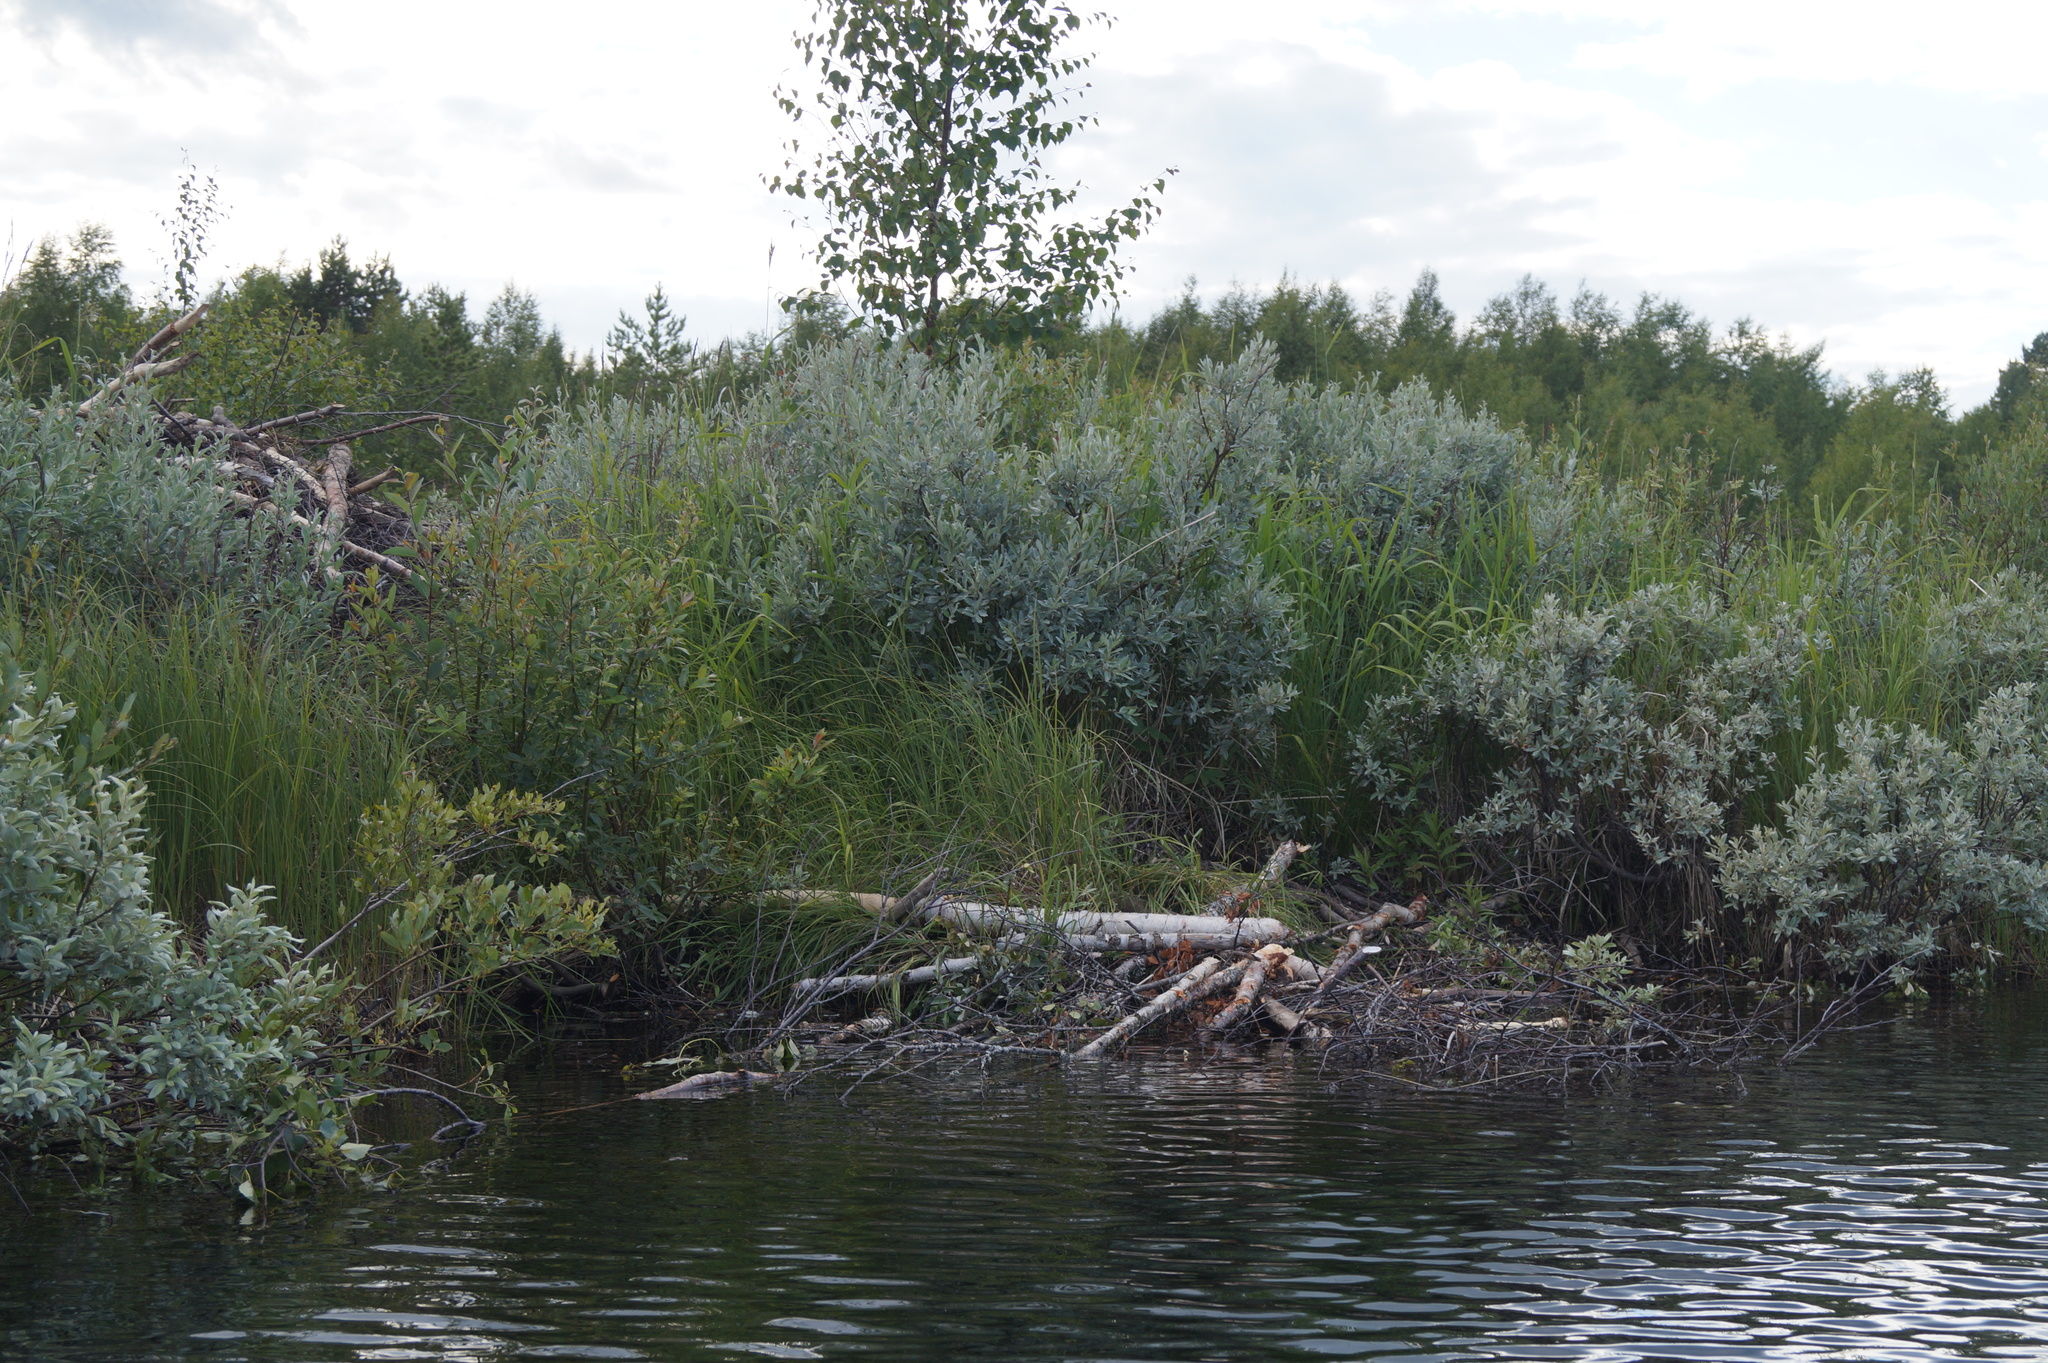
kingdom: Animalia
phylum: Chordata
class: Mammalia
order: Rodentia
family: Castoridae
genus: Castor
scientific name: Castor fiber
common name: Eurasian beaver
